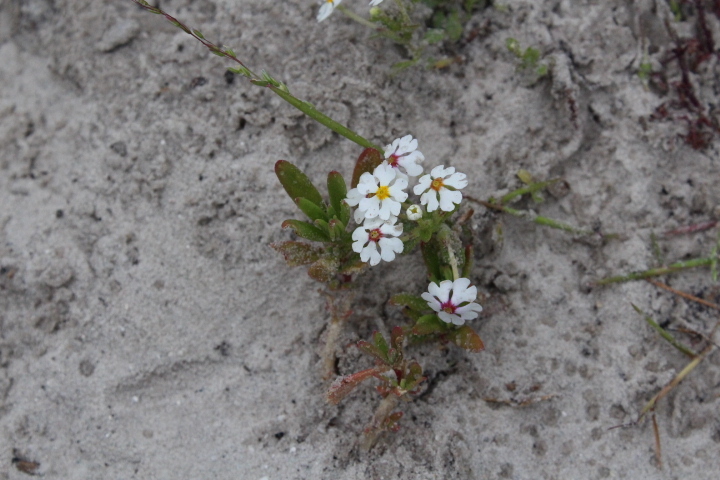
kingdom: Plantae
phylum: Tracheophyta
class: Magnoliopsida
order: Lamiales
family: Scrophulariaceae
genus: Zaluzianskya
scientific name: Zaluzianskya villosa
